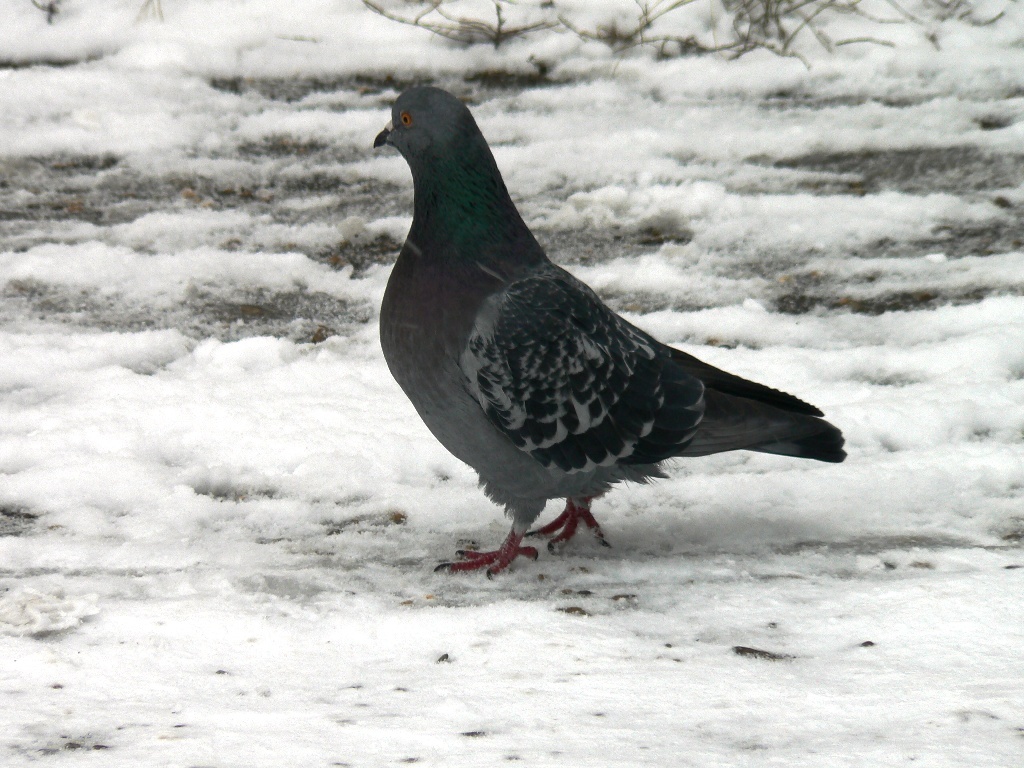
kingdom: Animalia
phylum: Chordata
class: Aves
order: Columbiformes
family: Columbidae
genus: Columba
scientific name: Columba livia
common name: Rock pigeon
